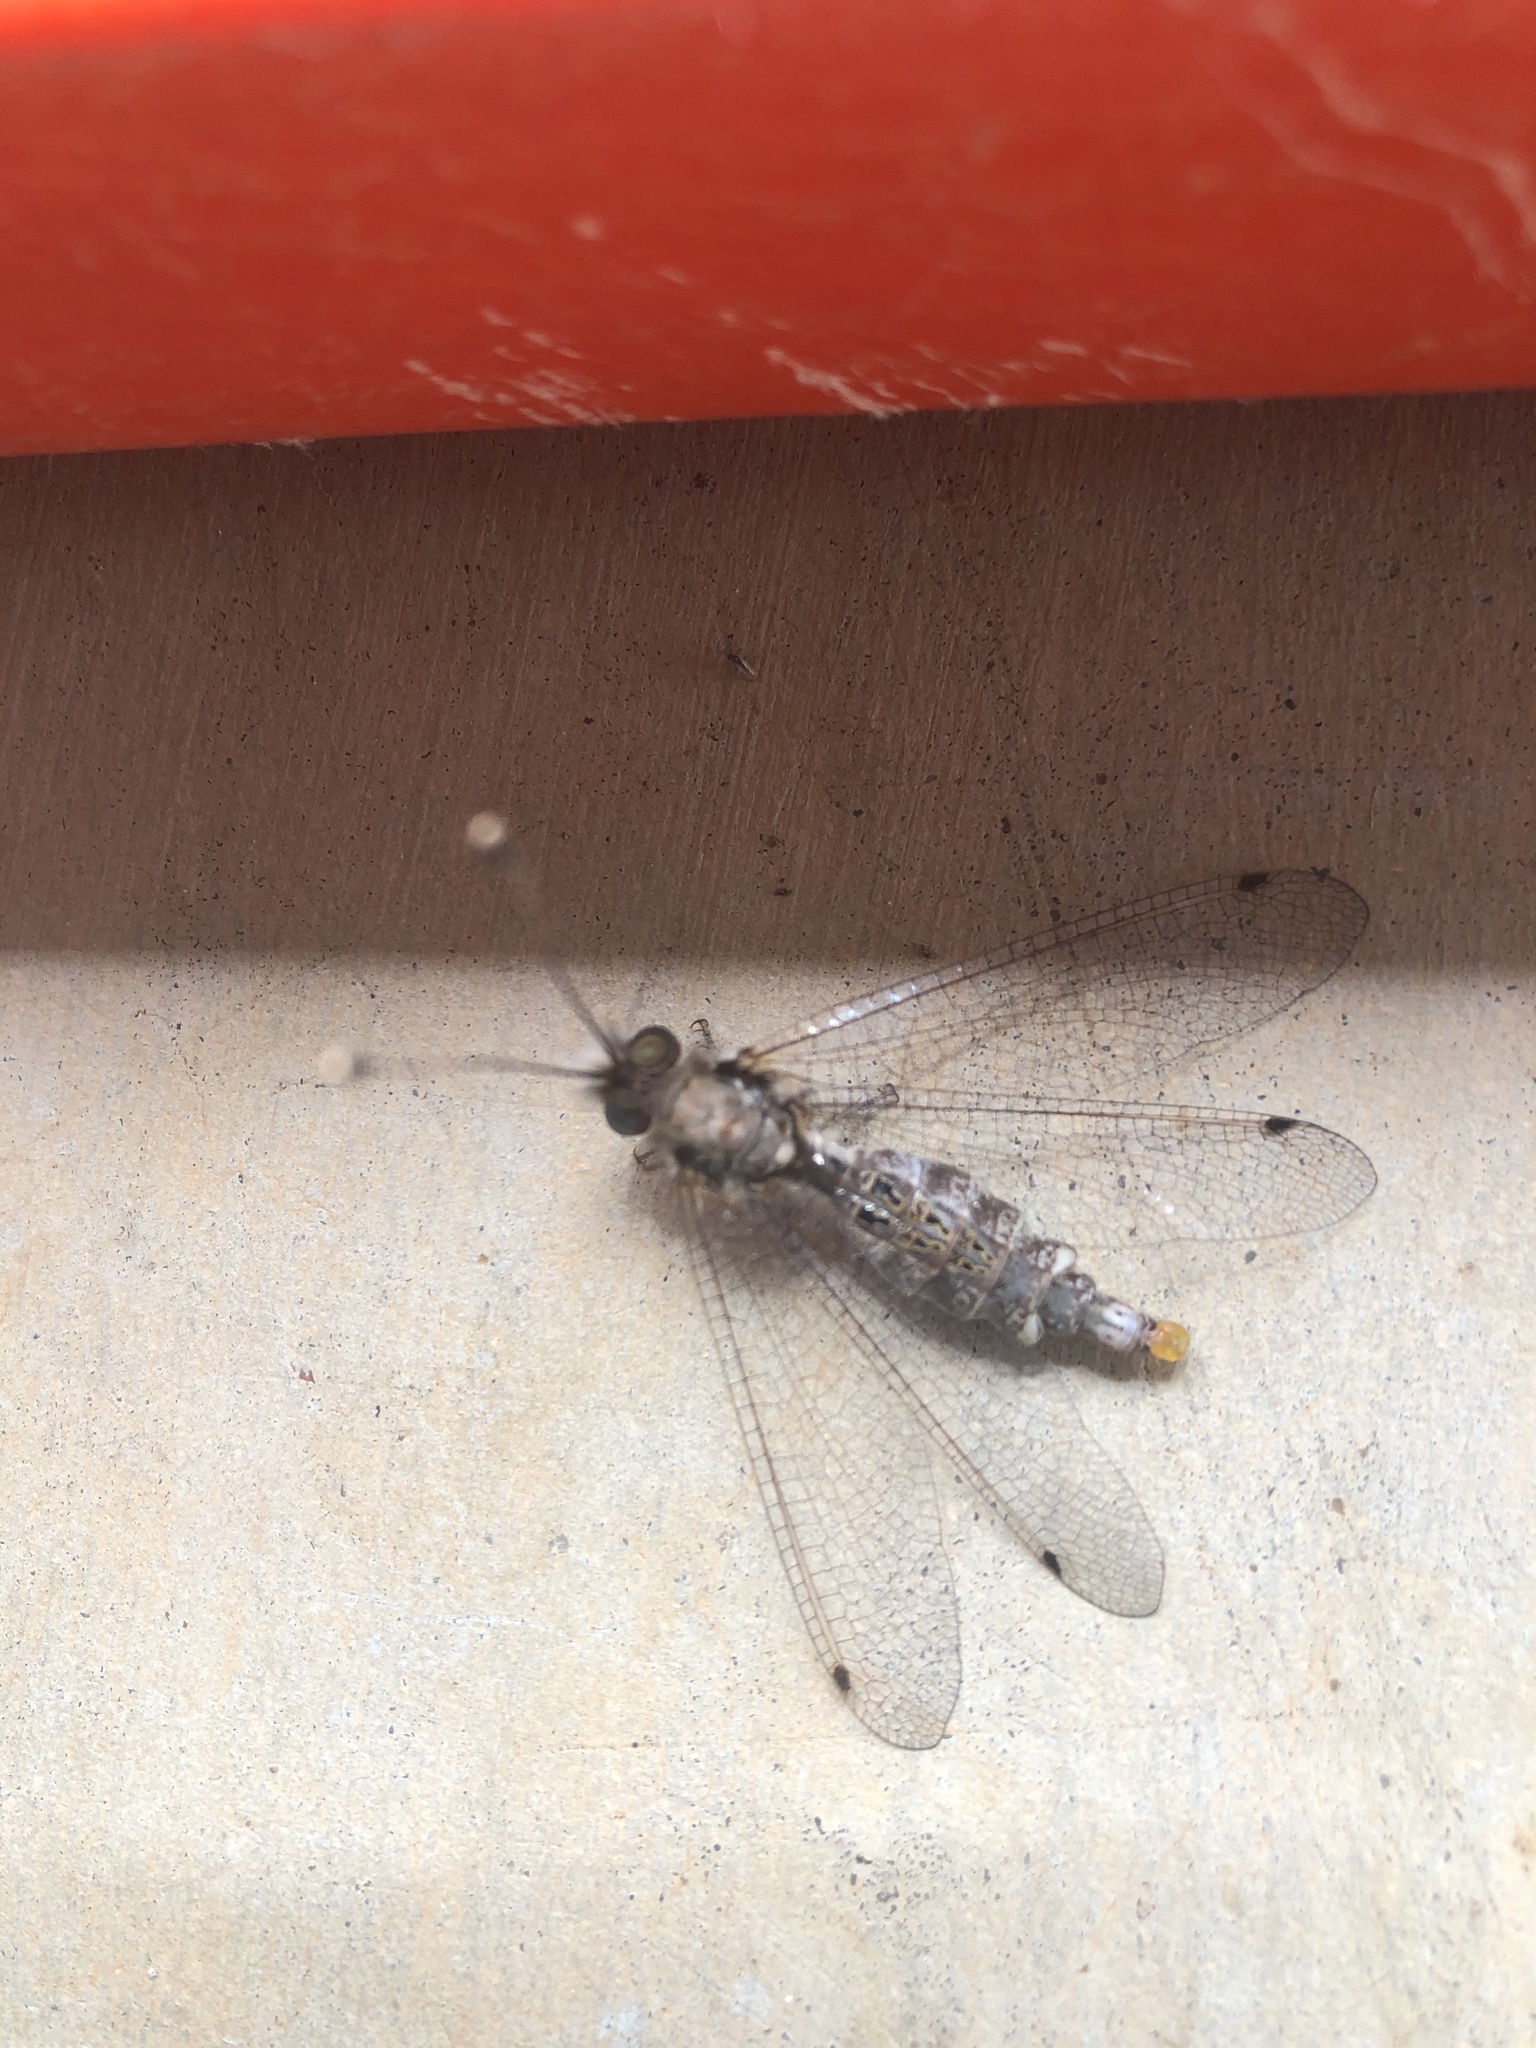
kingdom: Animalia
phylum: Arthropoda
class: Insecta
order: Neuroptera
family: Ascalaphidae
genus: Ululodes
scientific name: Ululodes macleayanus
